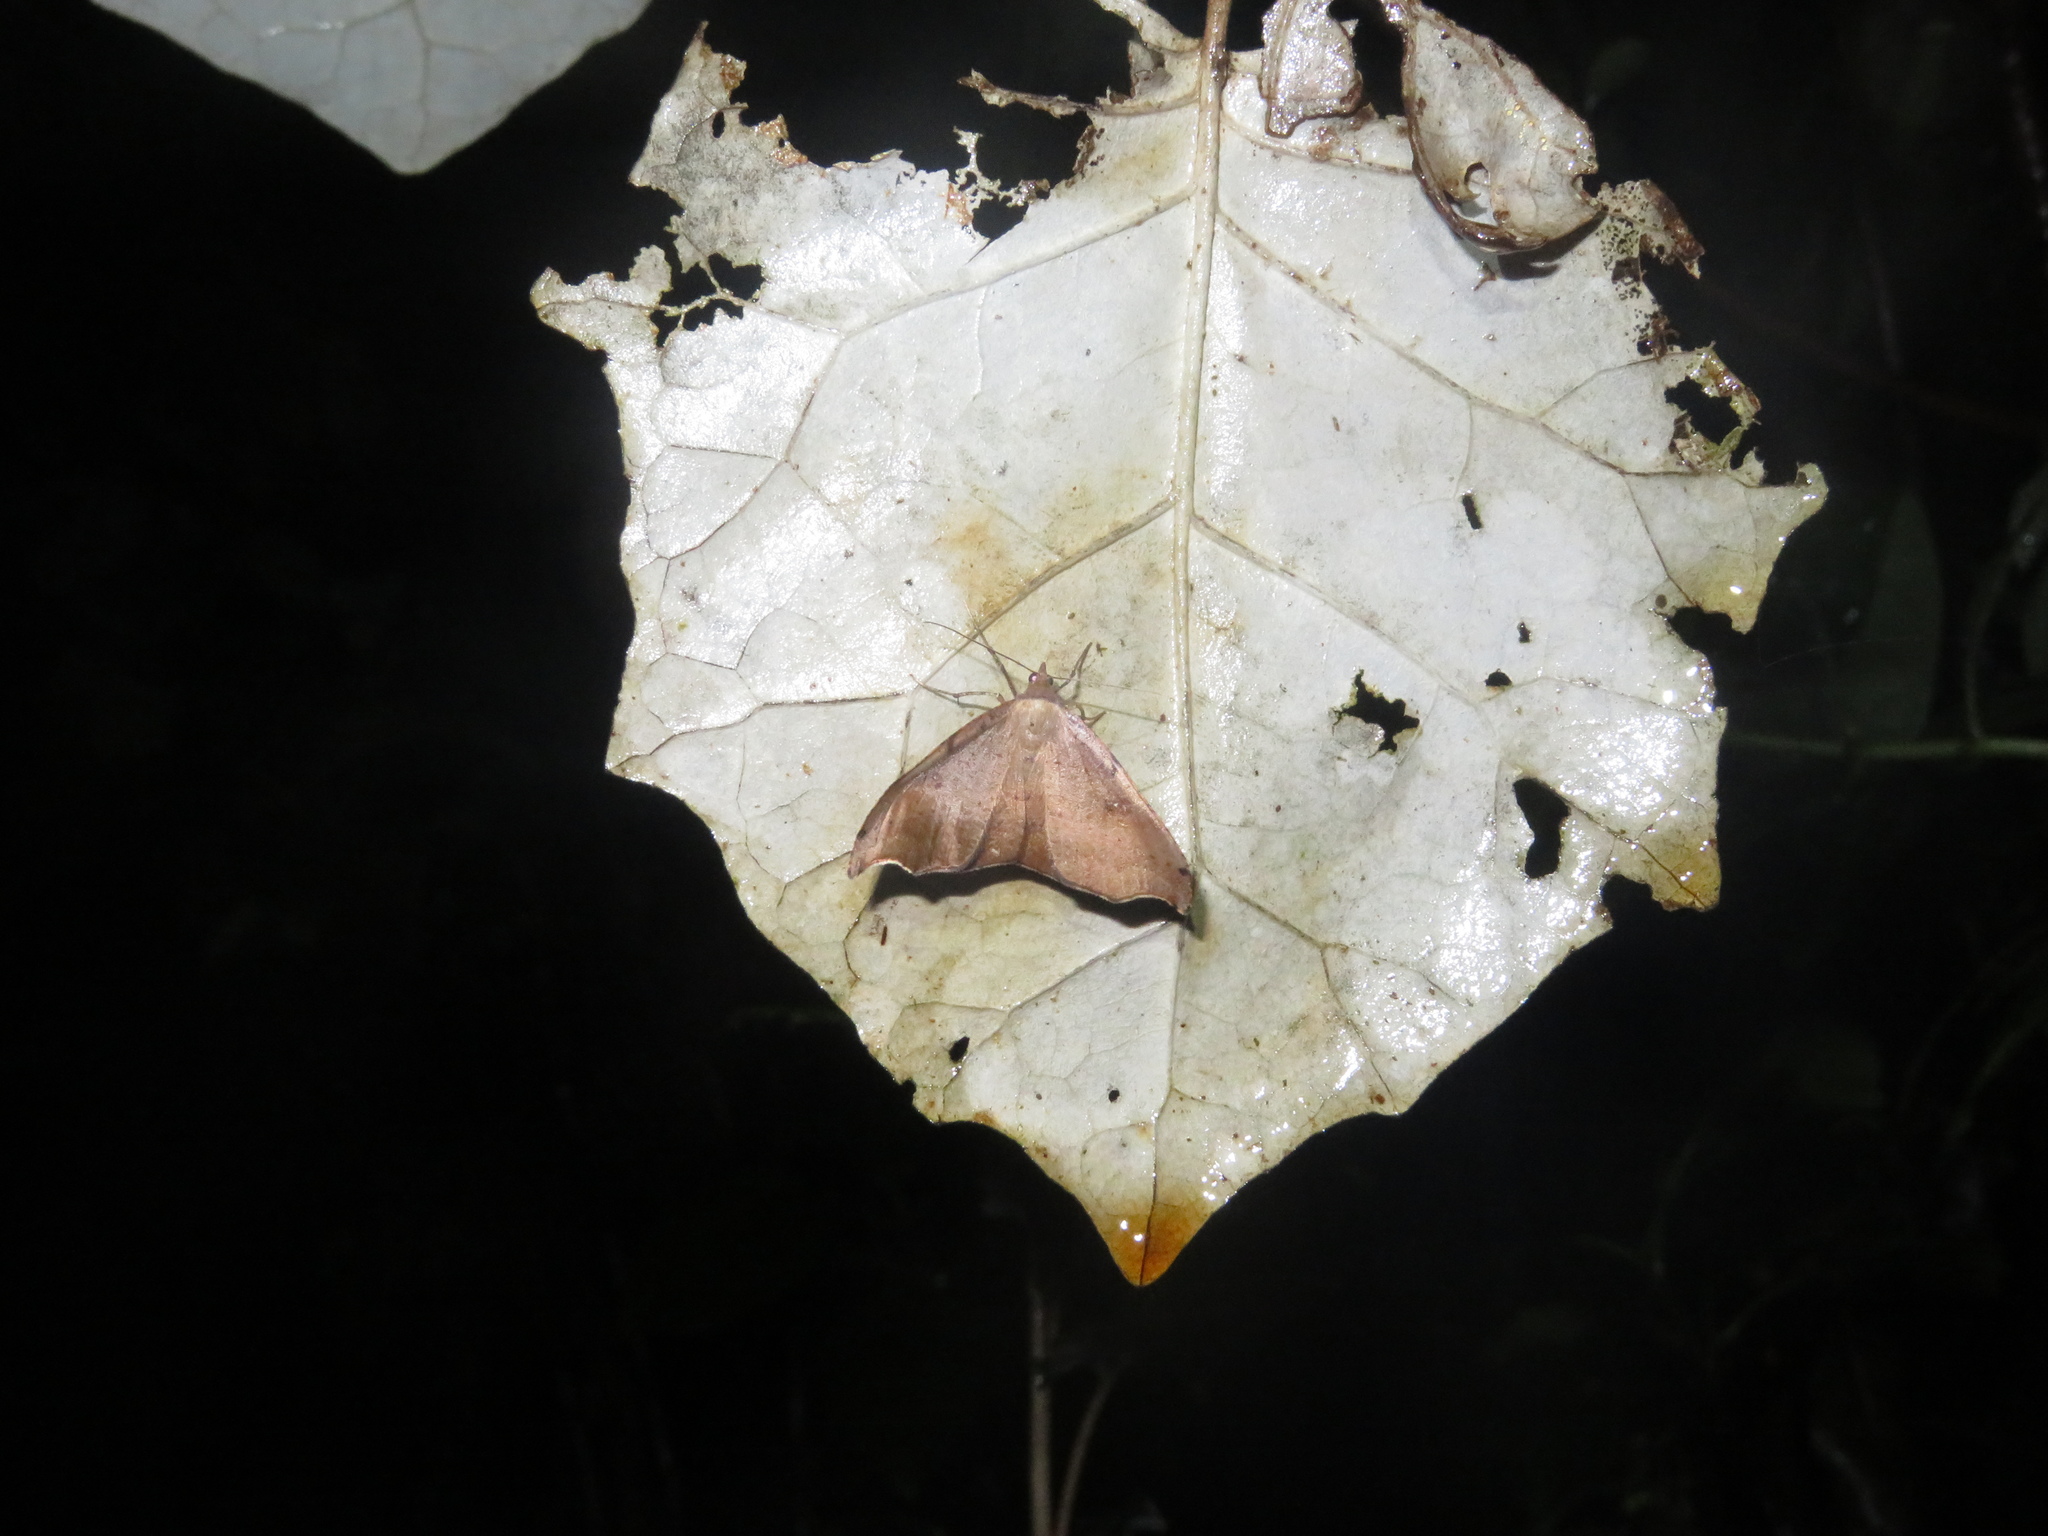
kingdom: Animalia
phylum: Arthropoda
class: Insecta
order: Lepidoptera
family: Geometridae
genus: Sarisa
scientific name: Sarisa muriferata
